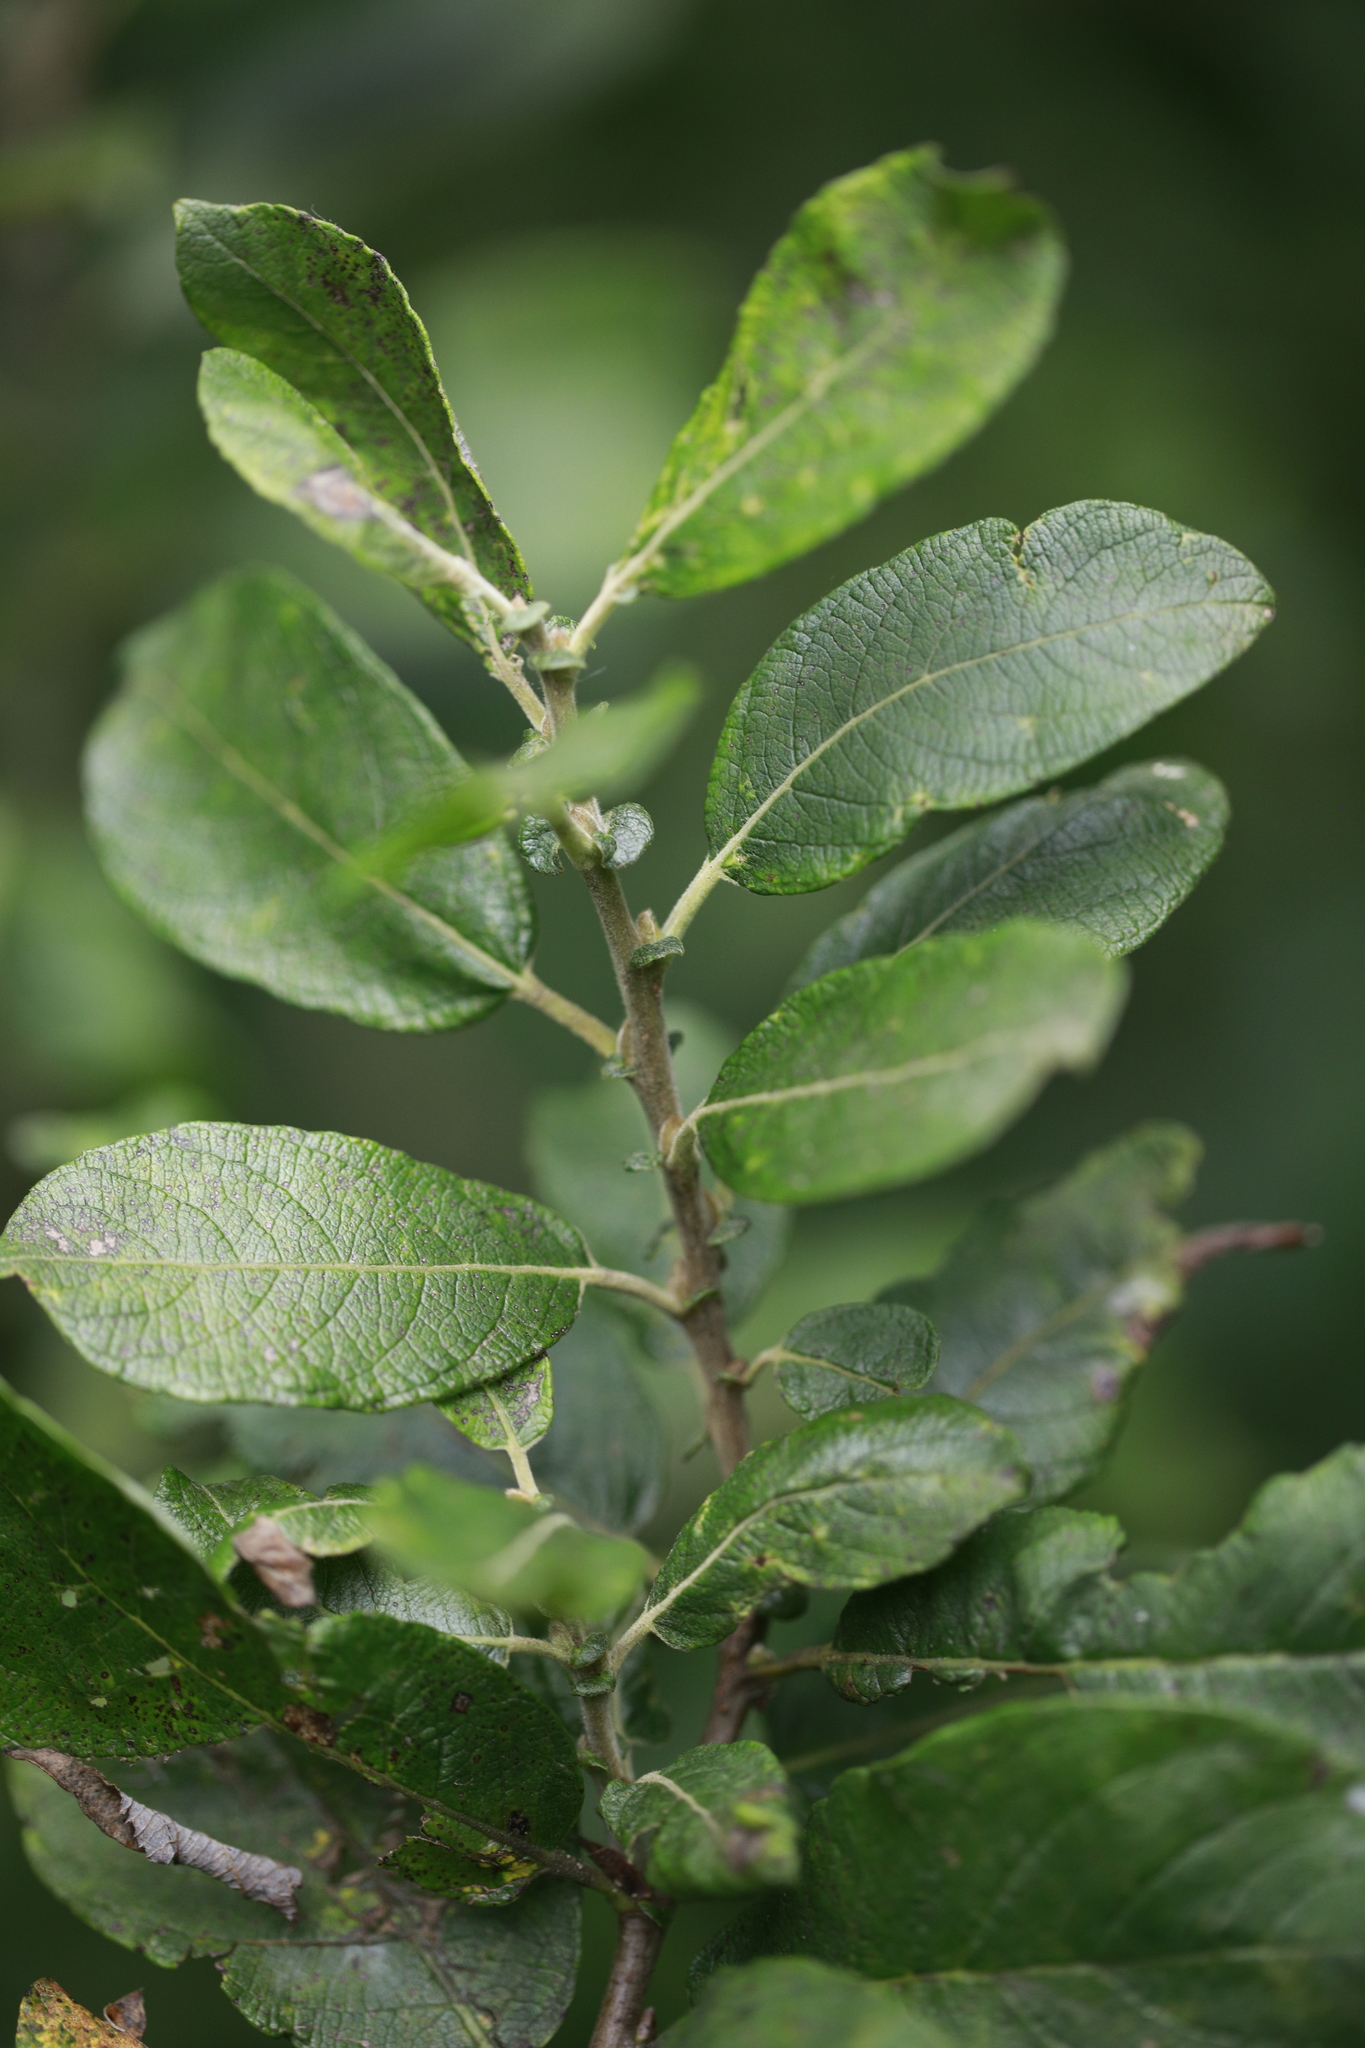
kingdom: Plantae
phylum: Tracheophyta
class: Magnoliopsida
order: Malpighiales
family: Salicaceae
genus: Salix
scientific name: Salix cinerea
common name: Common sallow
